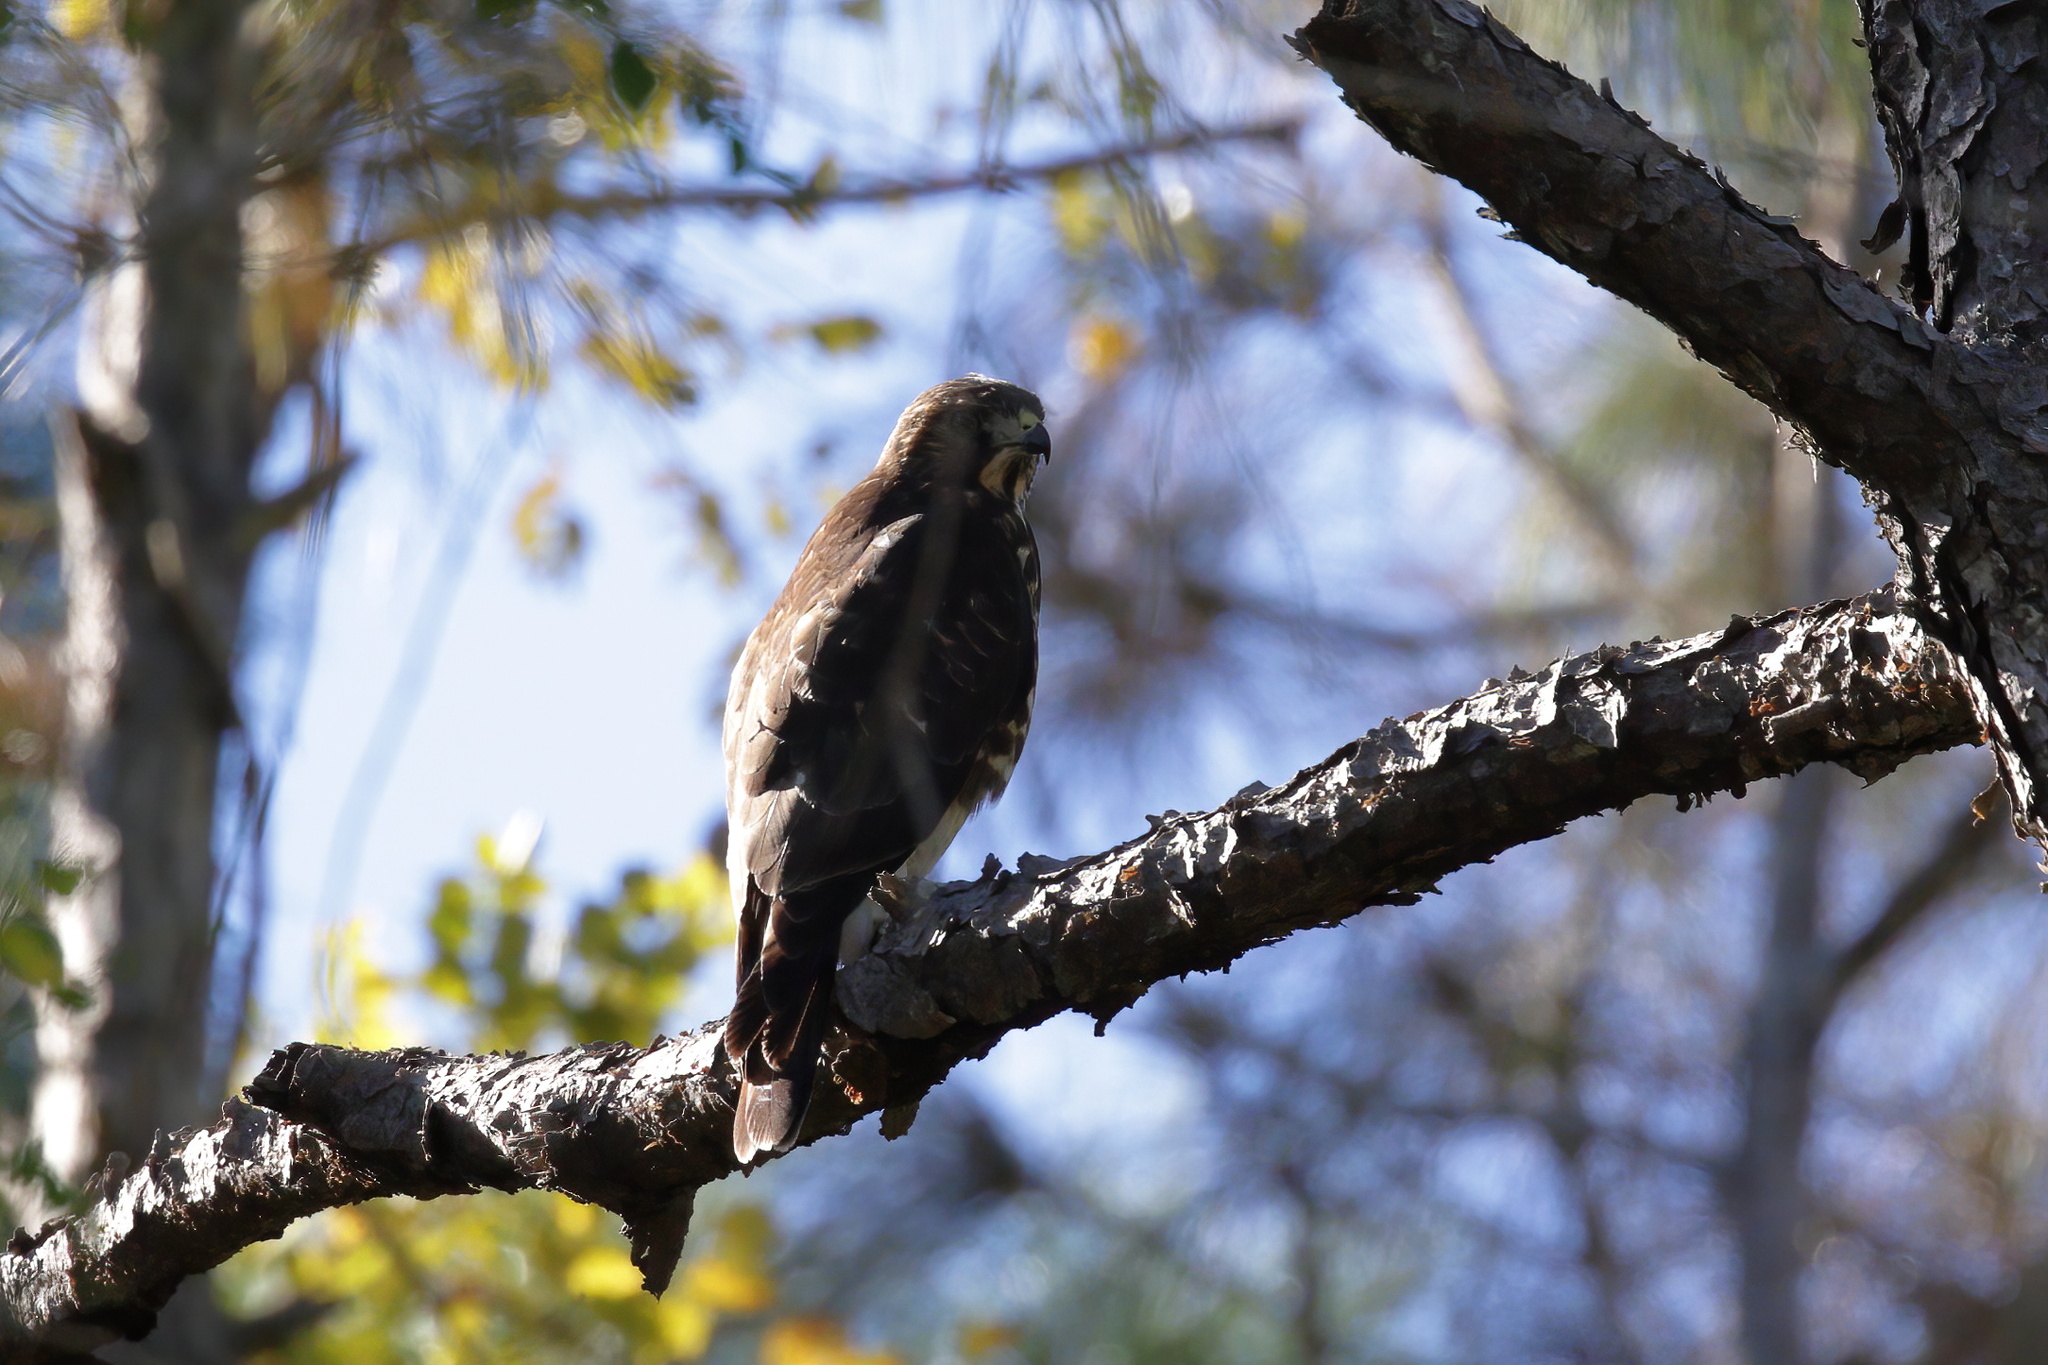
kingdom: Animalia
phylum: Chordata
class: Aves
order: Accipitriformes
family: Accipitridae
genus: Buteo
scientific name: Buteo platypterus
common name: Broad-winged hawk
